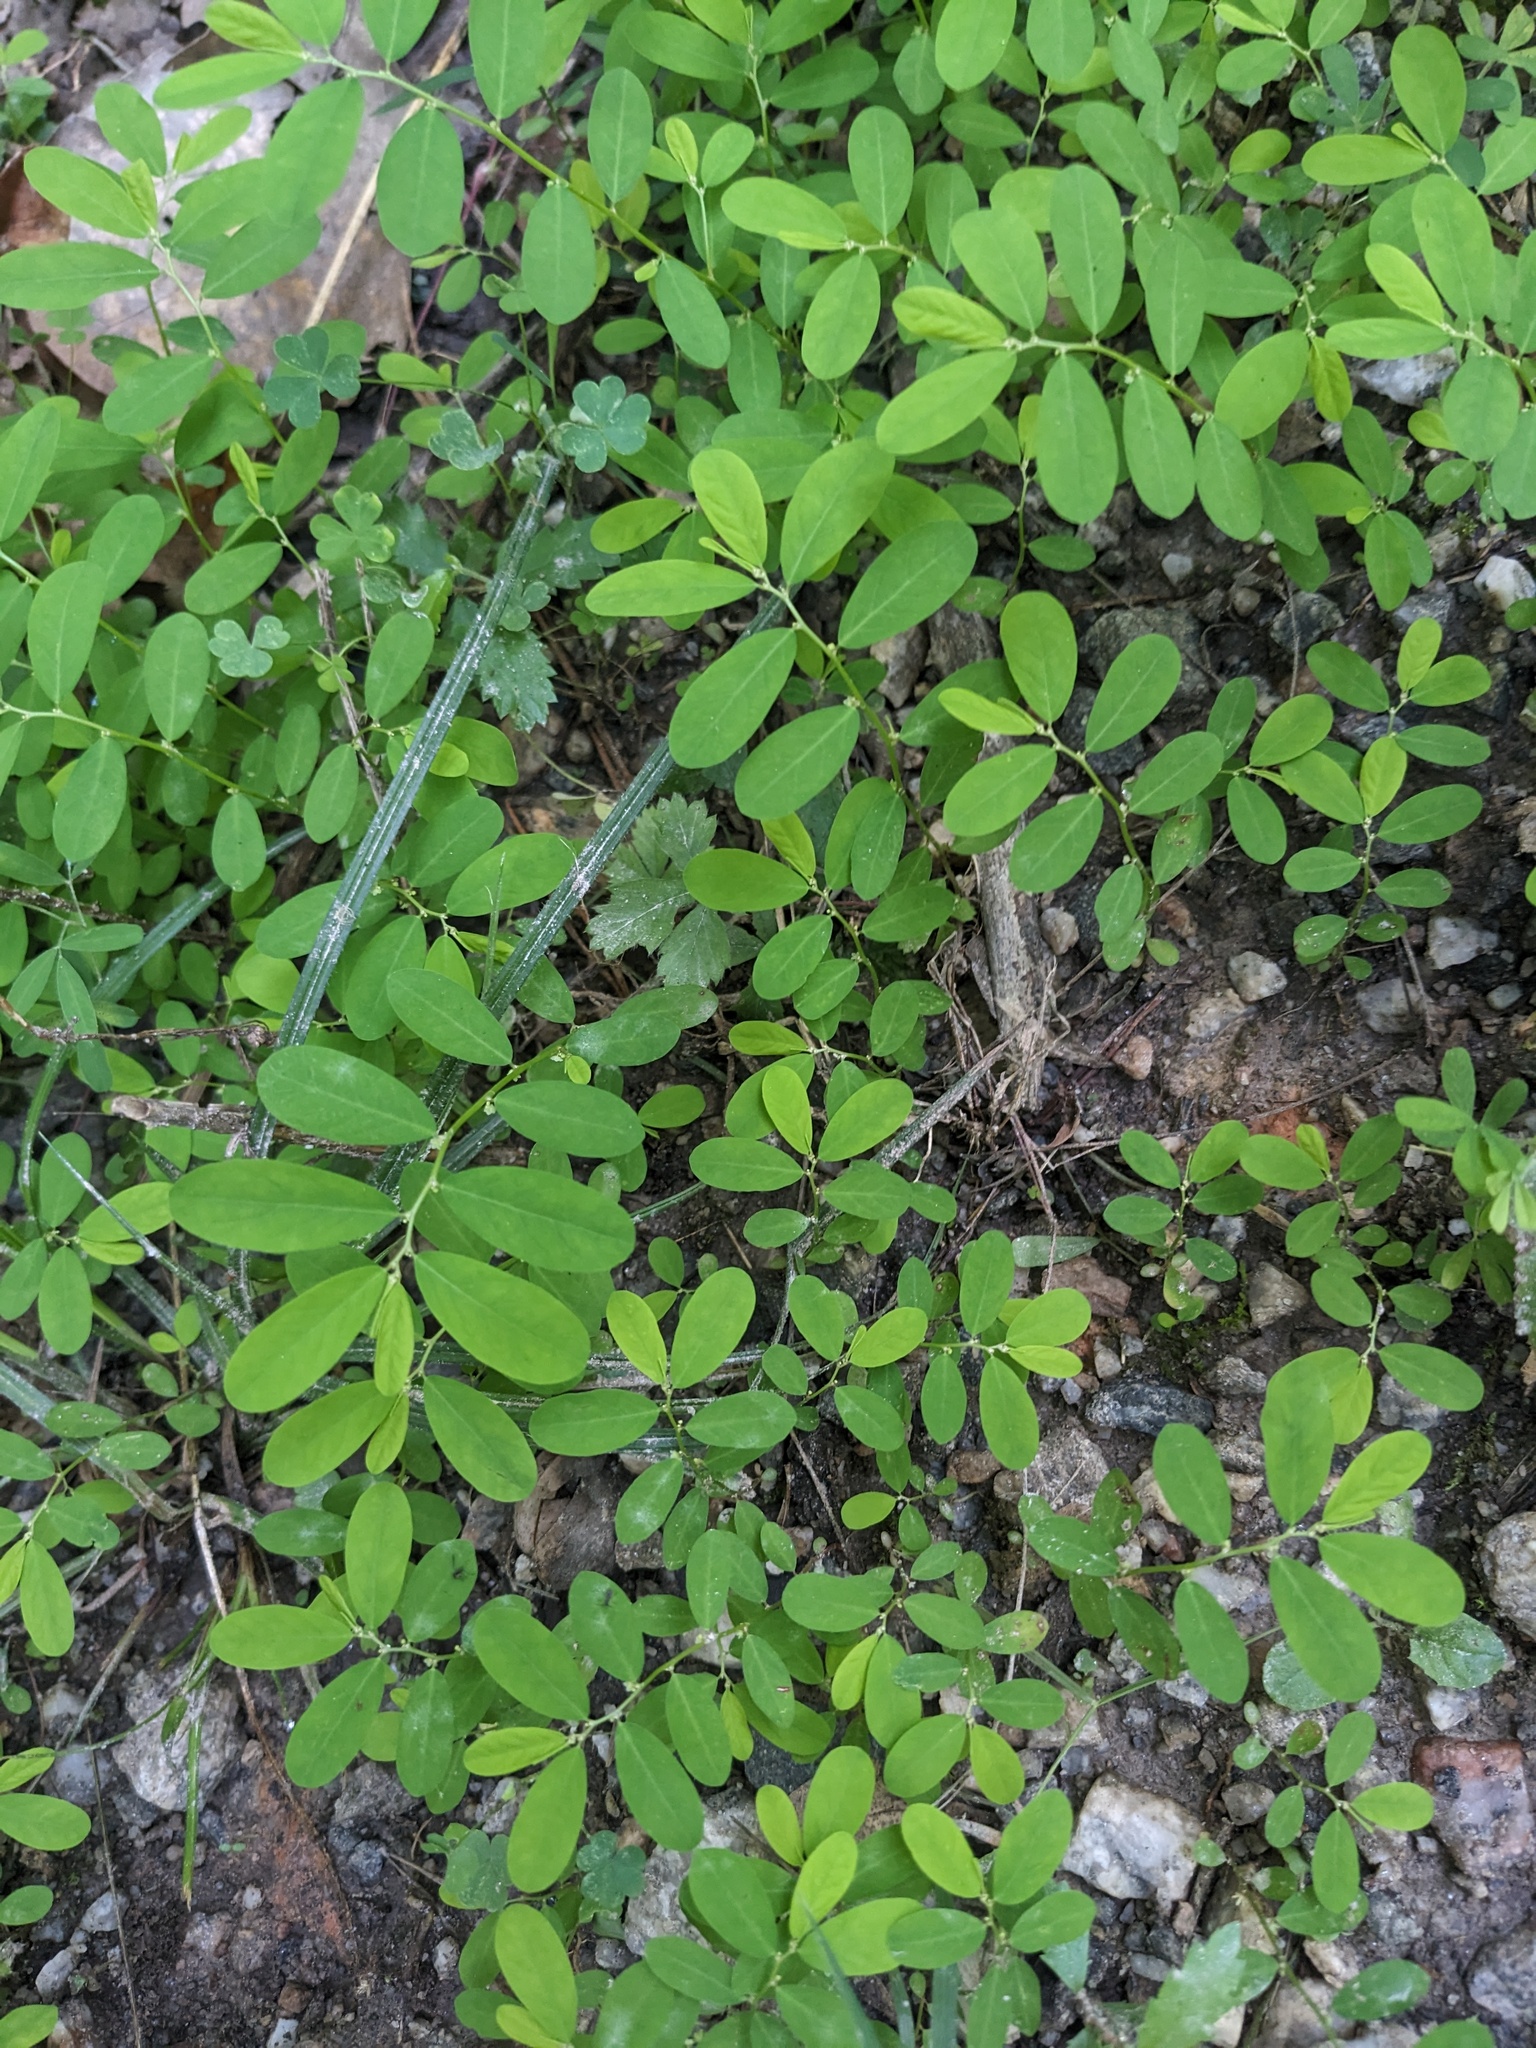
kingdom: Plantae
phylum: Tracheophyta
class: Magnoliopsida
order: Malpighiales
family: Phyllanthaceae
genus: Phyllanthus
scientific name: Phyllanthus caroliniensis
